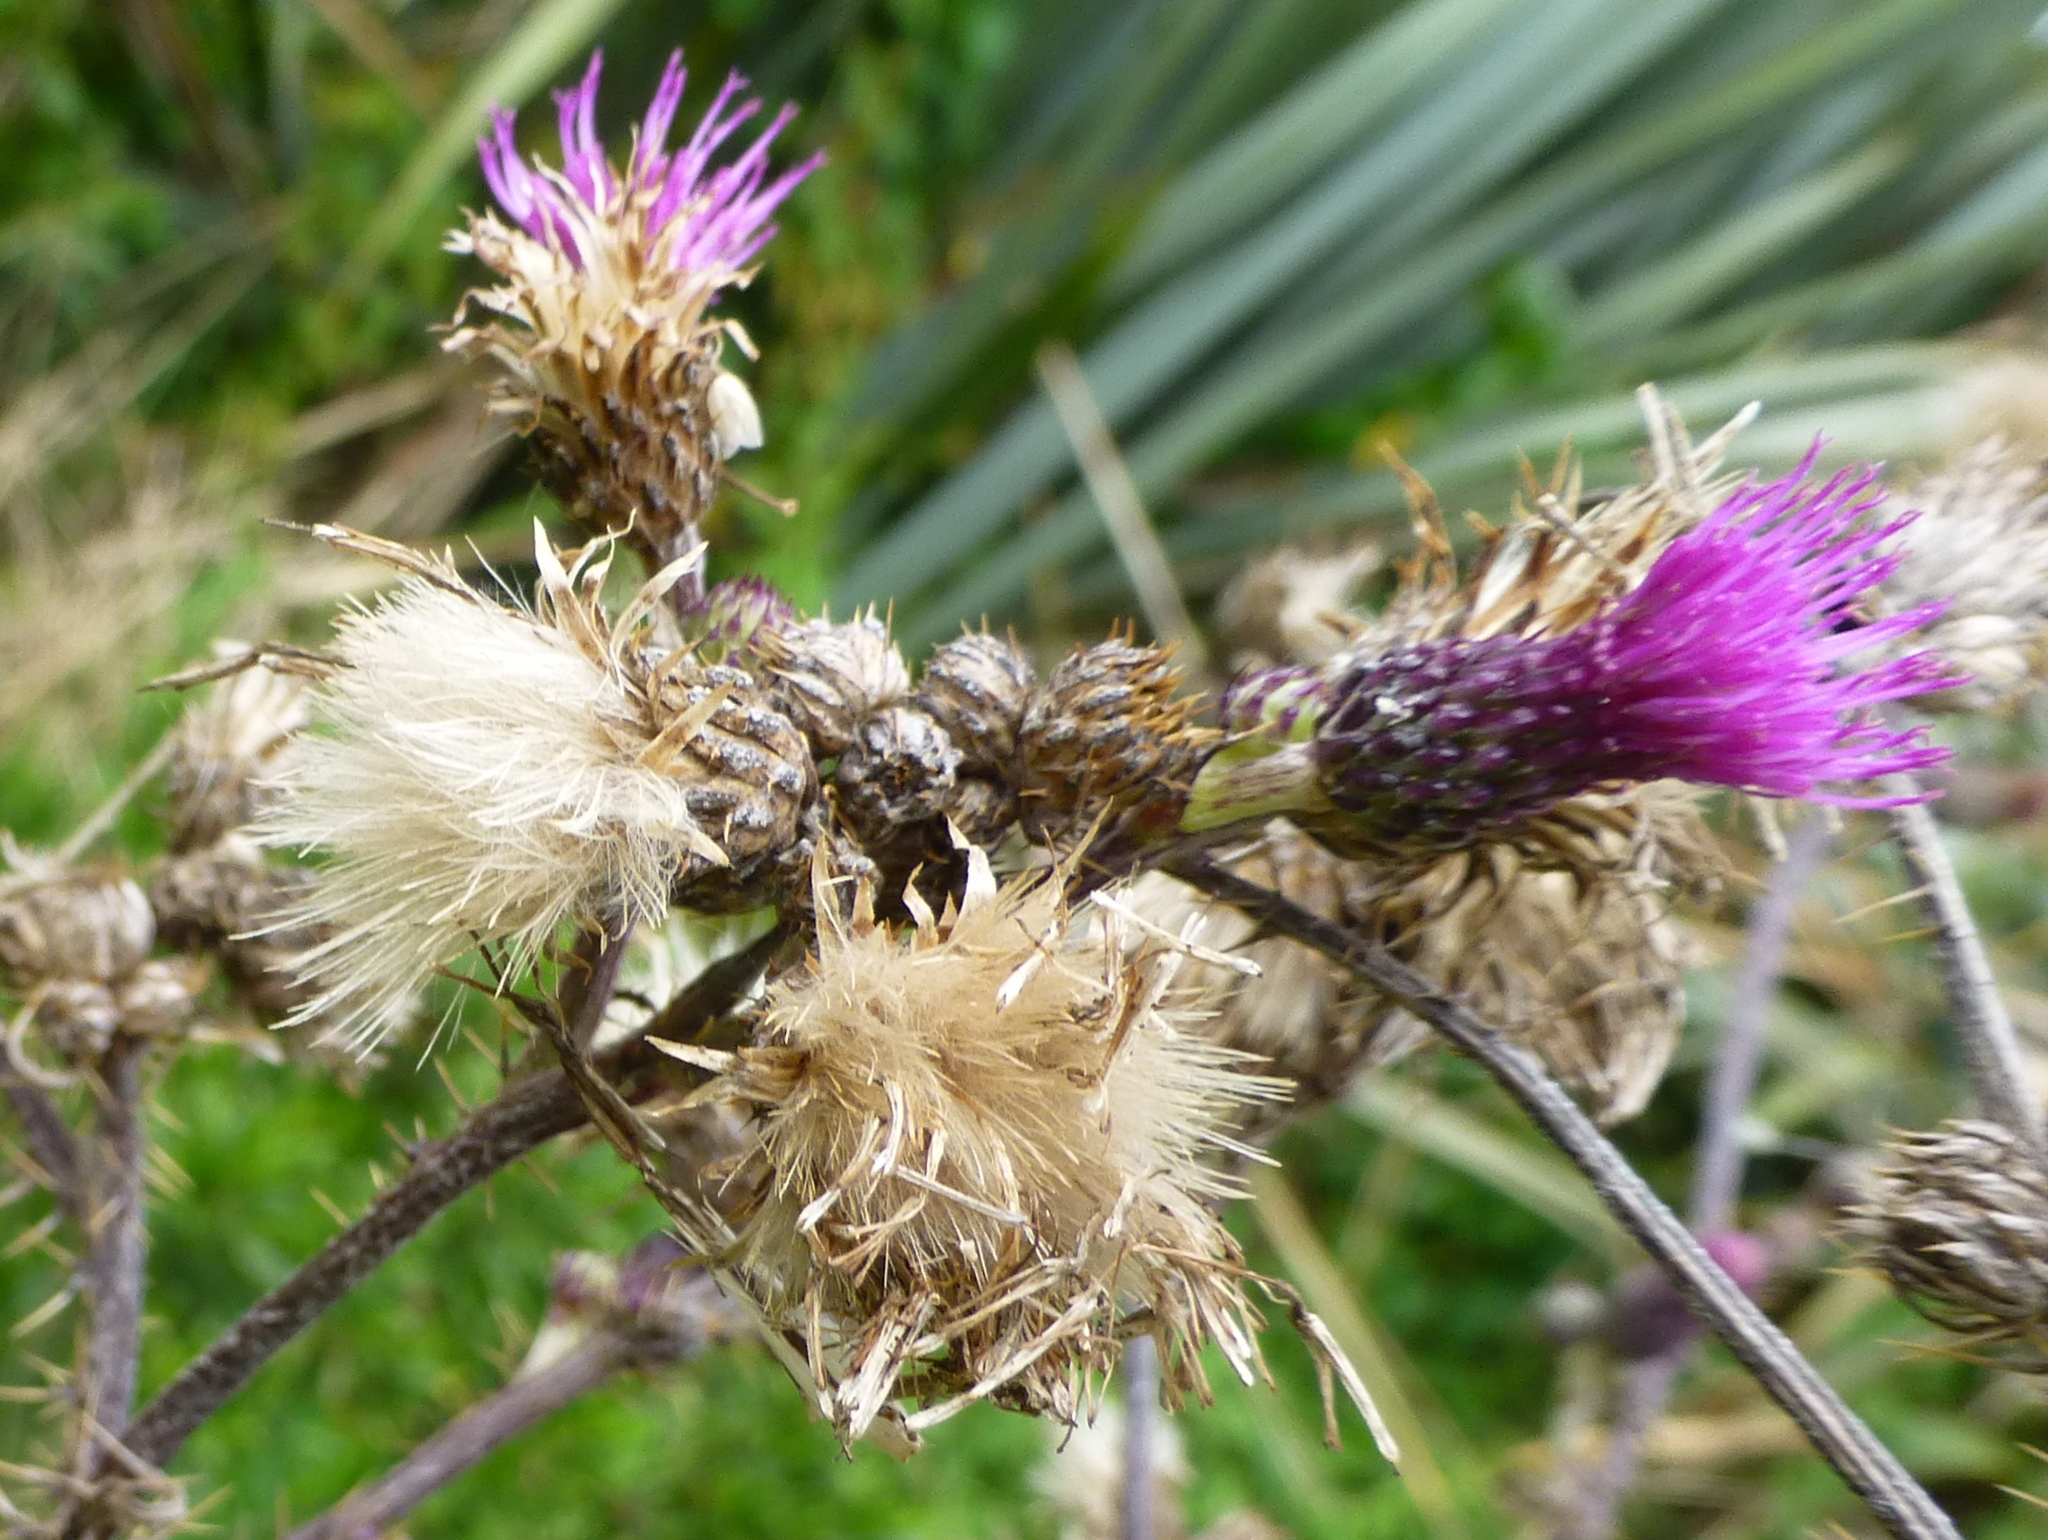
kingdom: Plantae
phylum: Tracheophyta
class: Magnoliopsida
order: Asterales
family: Asteraceae
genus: Cirsium
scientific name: Cirsium palustre
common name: Marsh thistle
